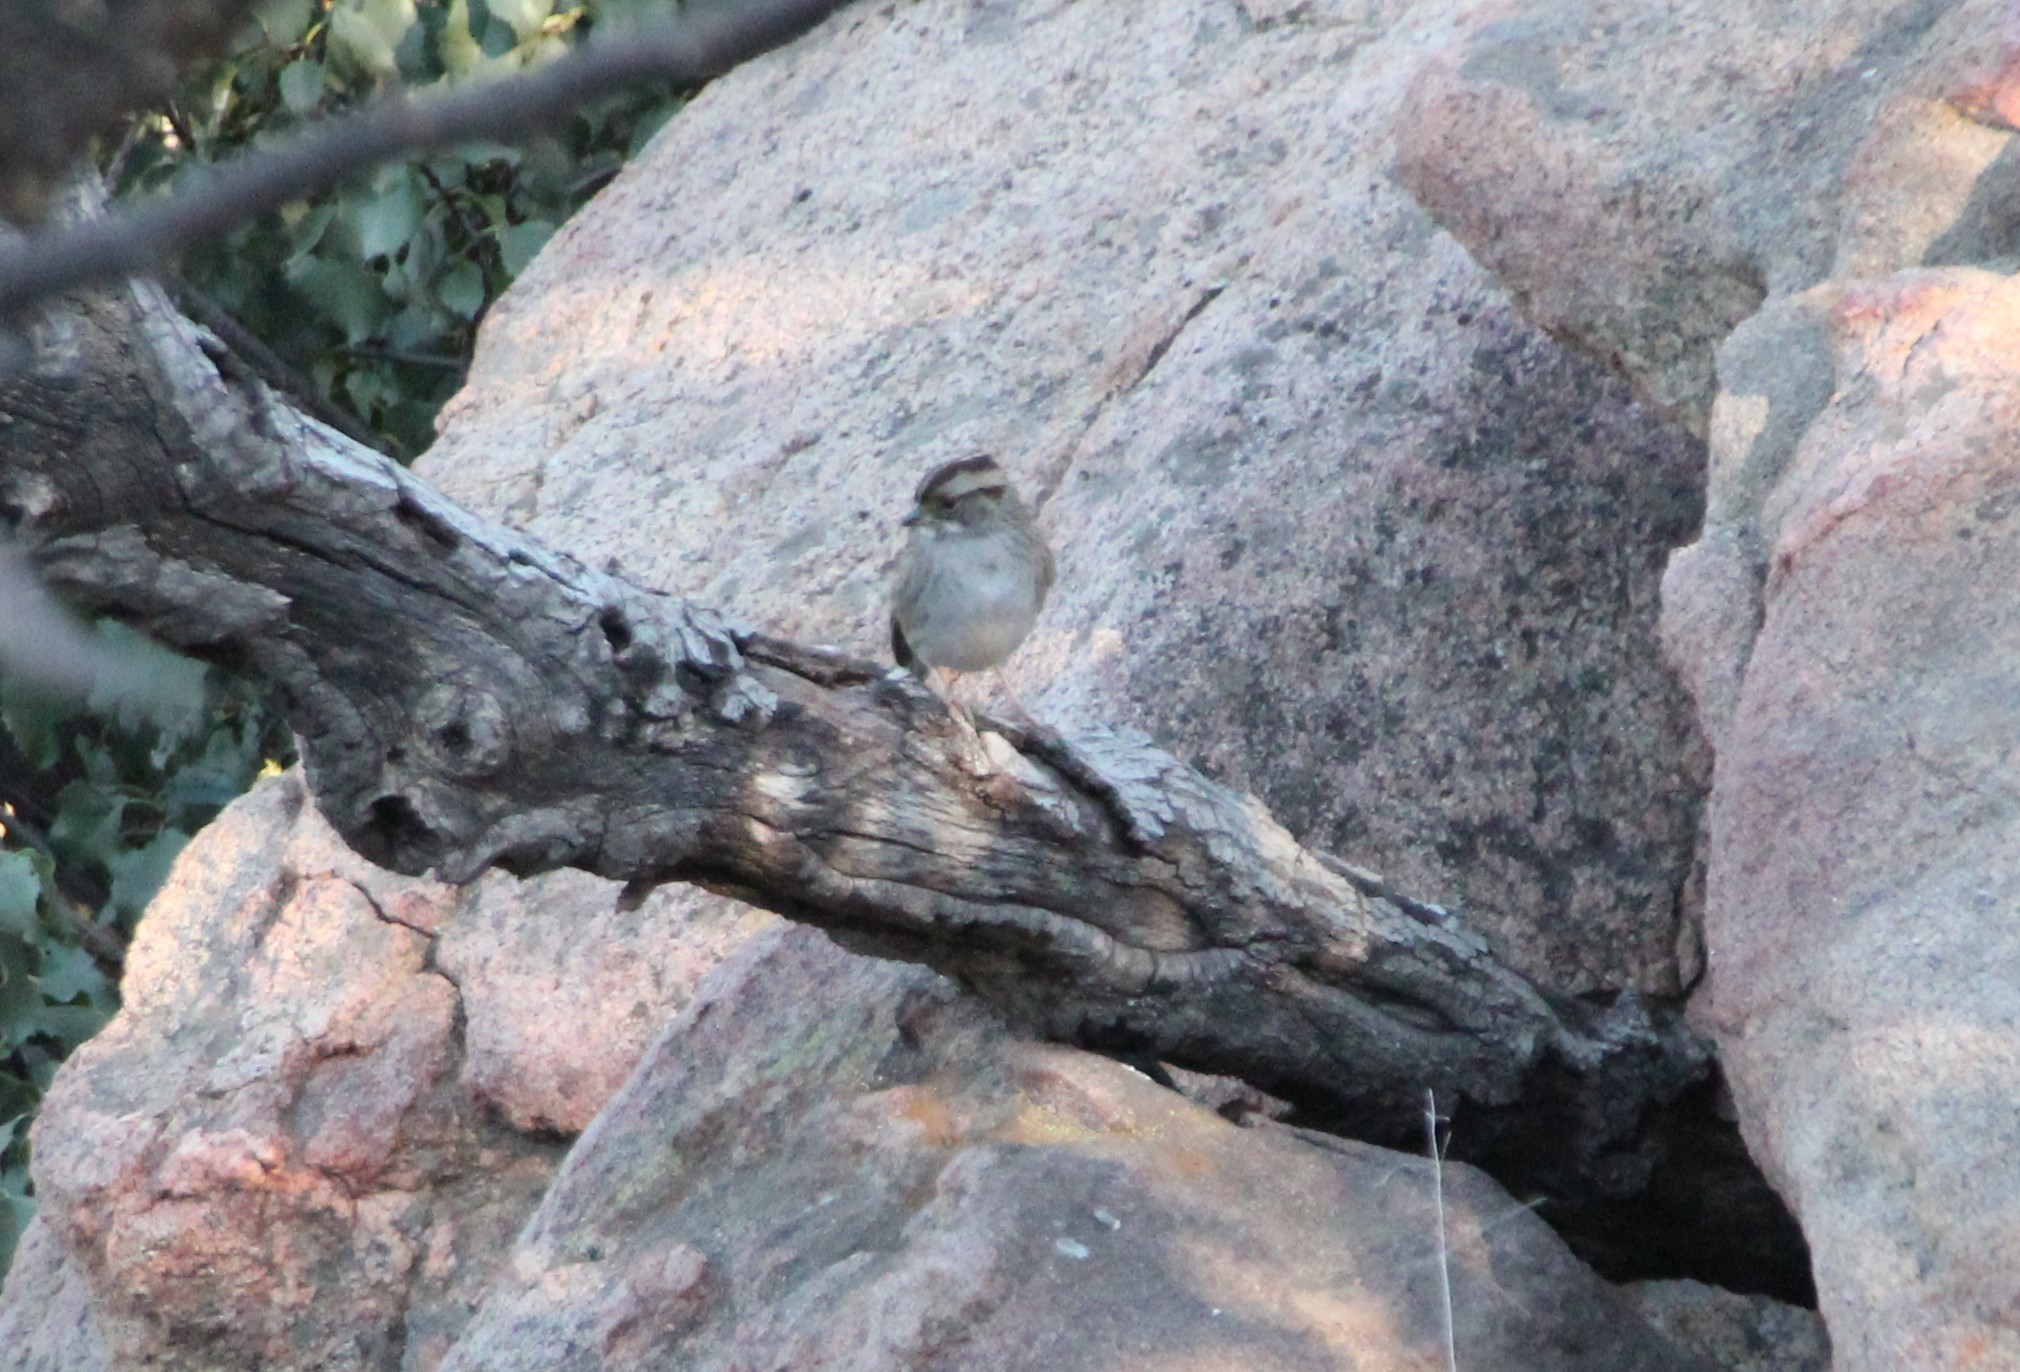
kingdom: Animalia
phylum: Chordata
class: Aves
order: Passeriformes
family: Passerellidae
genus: Zonotrichia
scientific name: Zonotrichia albicollis
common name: White-throated sparrow
